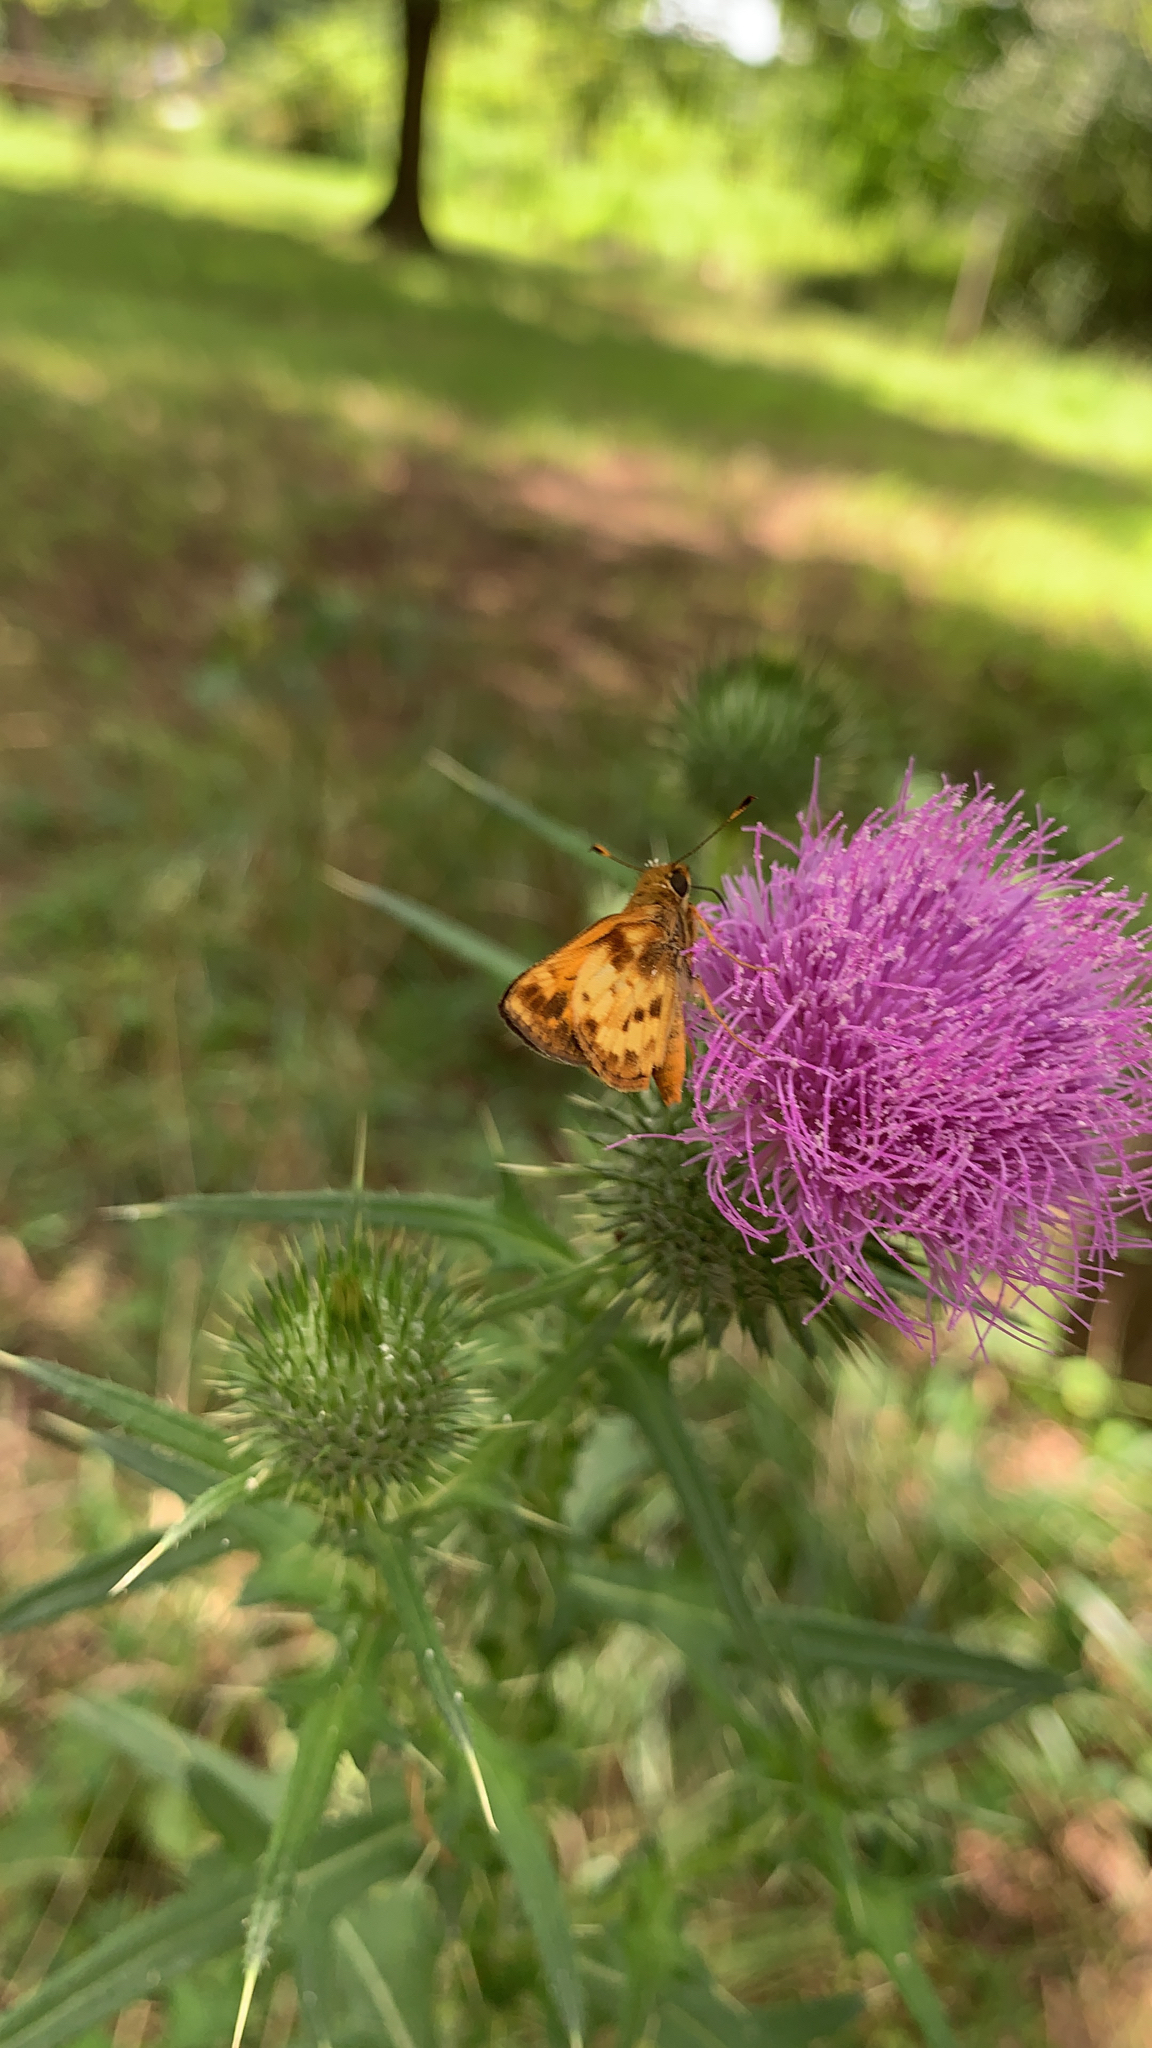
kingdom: Animalia
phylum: Arthropoda
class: Insecta
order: Lepidoptera
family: Hesperiidae
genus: Lon
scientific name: Lon zabulon
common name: Zabulon skipper
